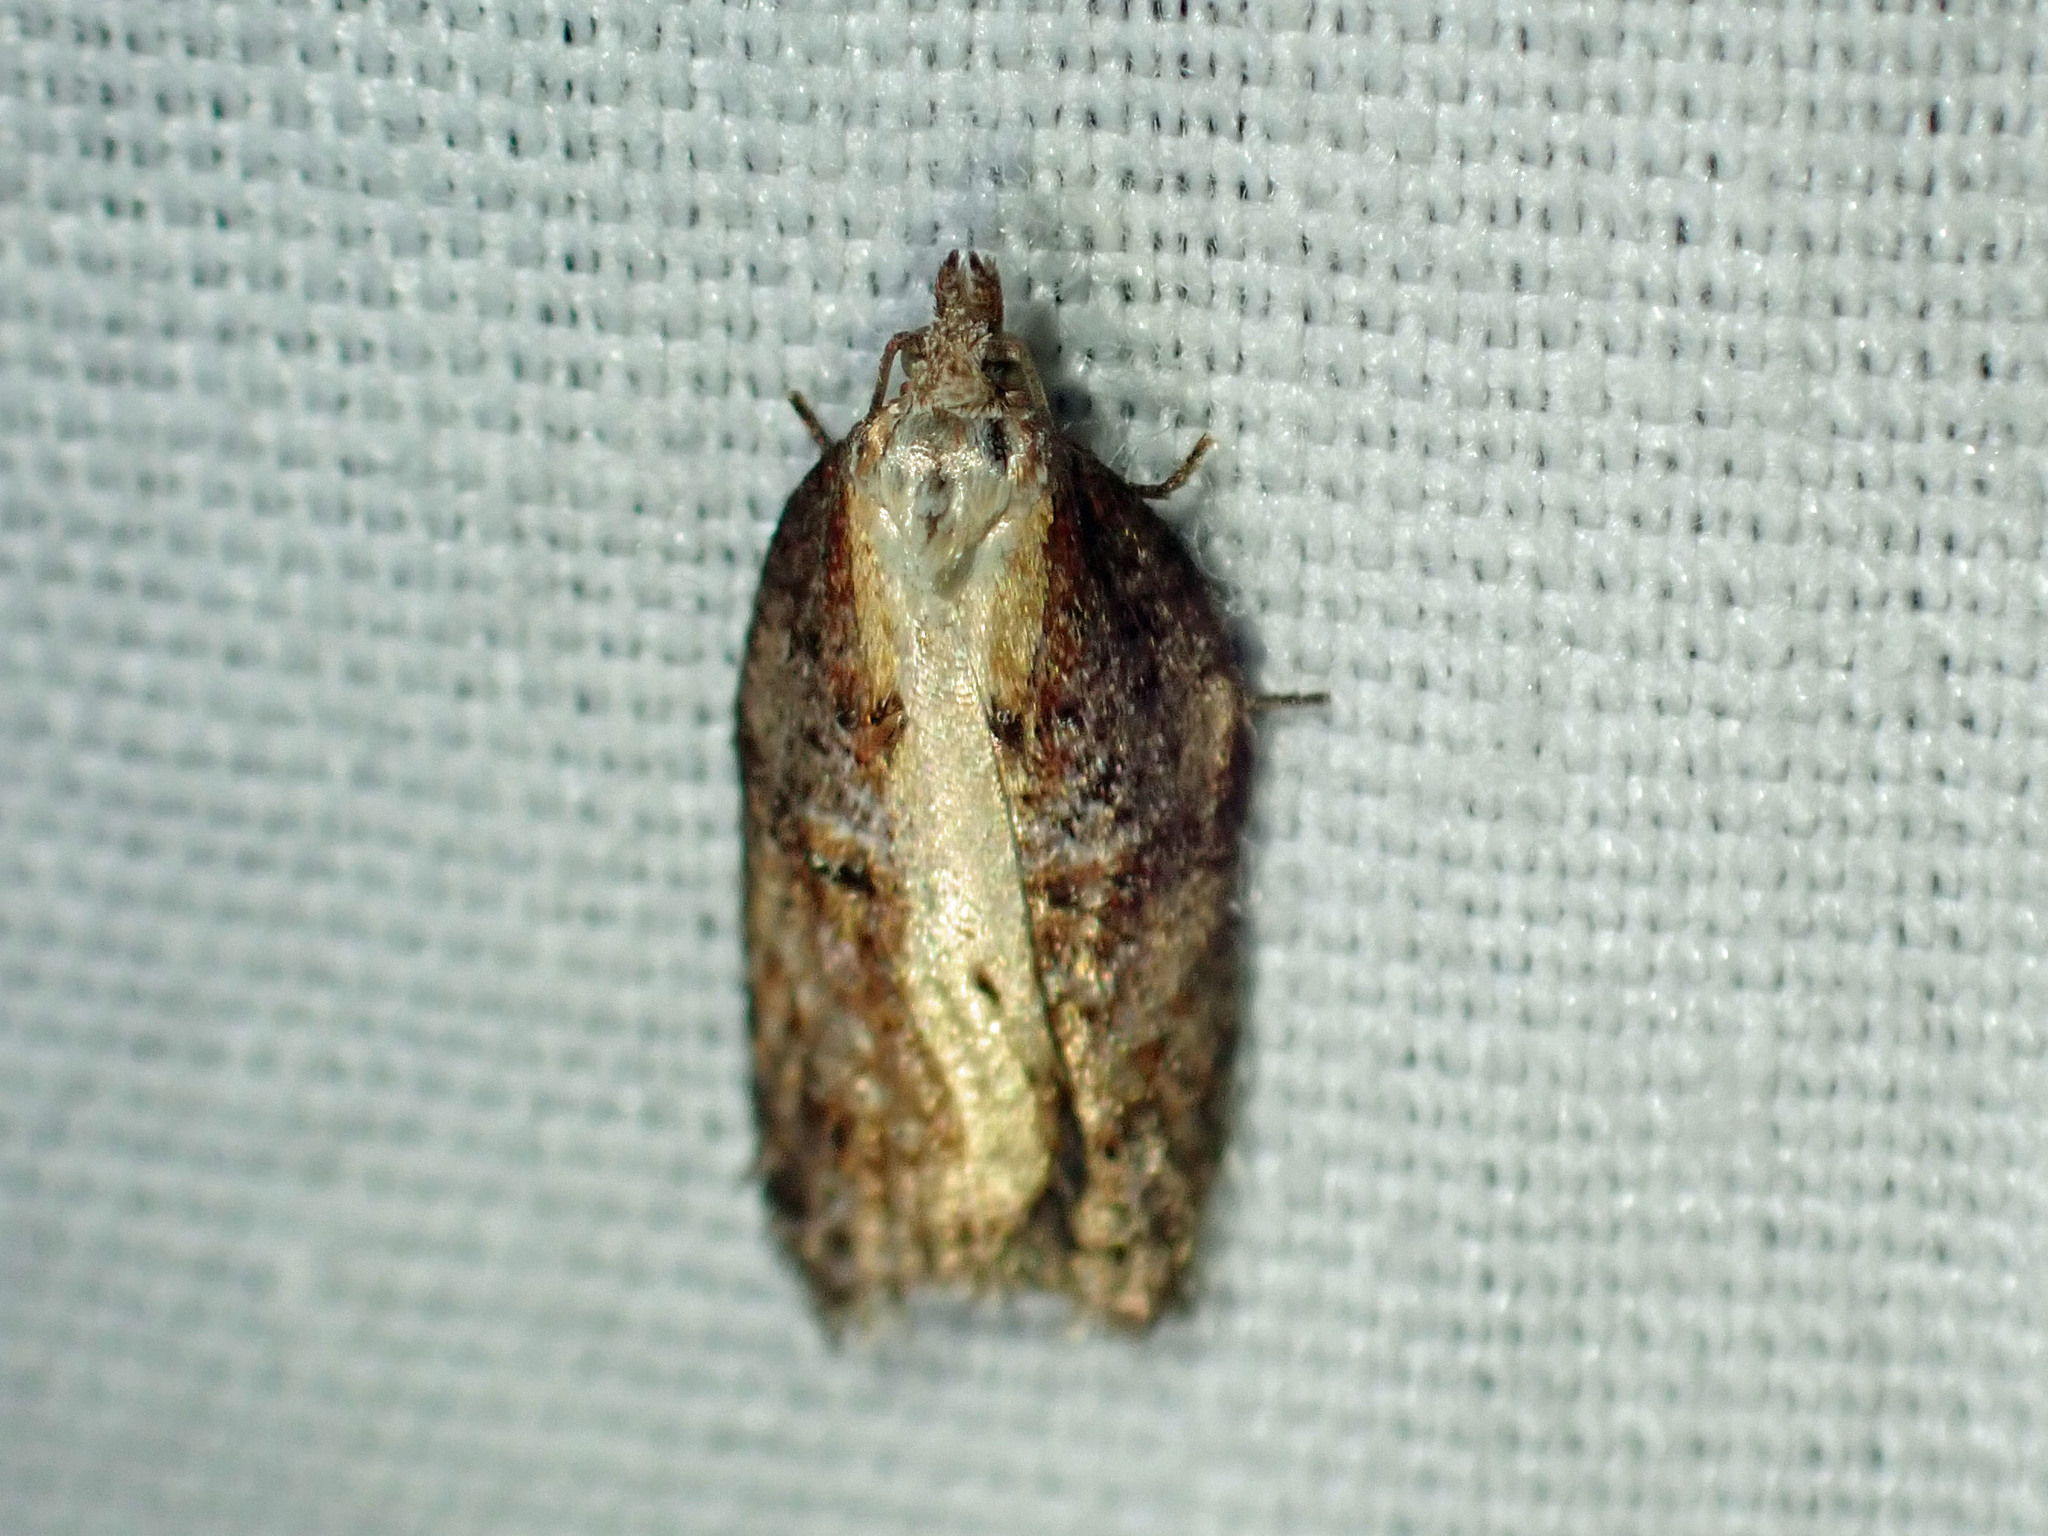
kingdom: Animalia
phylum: Arthropoda
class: Insecta
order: Lepidoptera
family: Tortricidae
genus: Acleris
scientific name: Acleris robinsoniana
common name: Robinson's acleris moth
